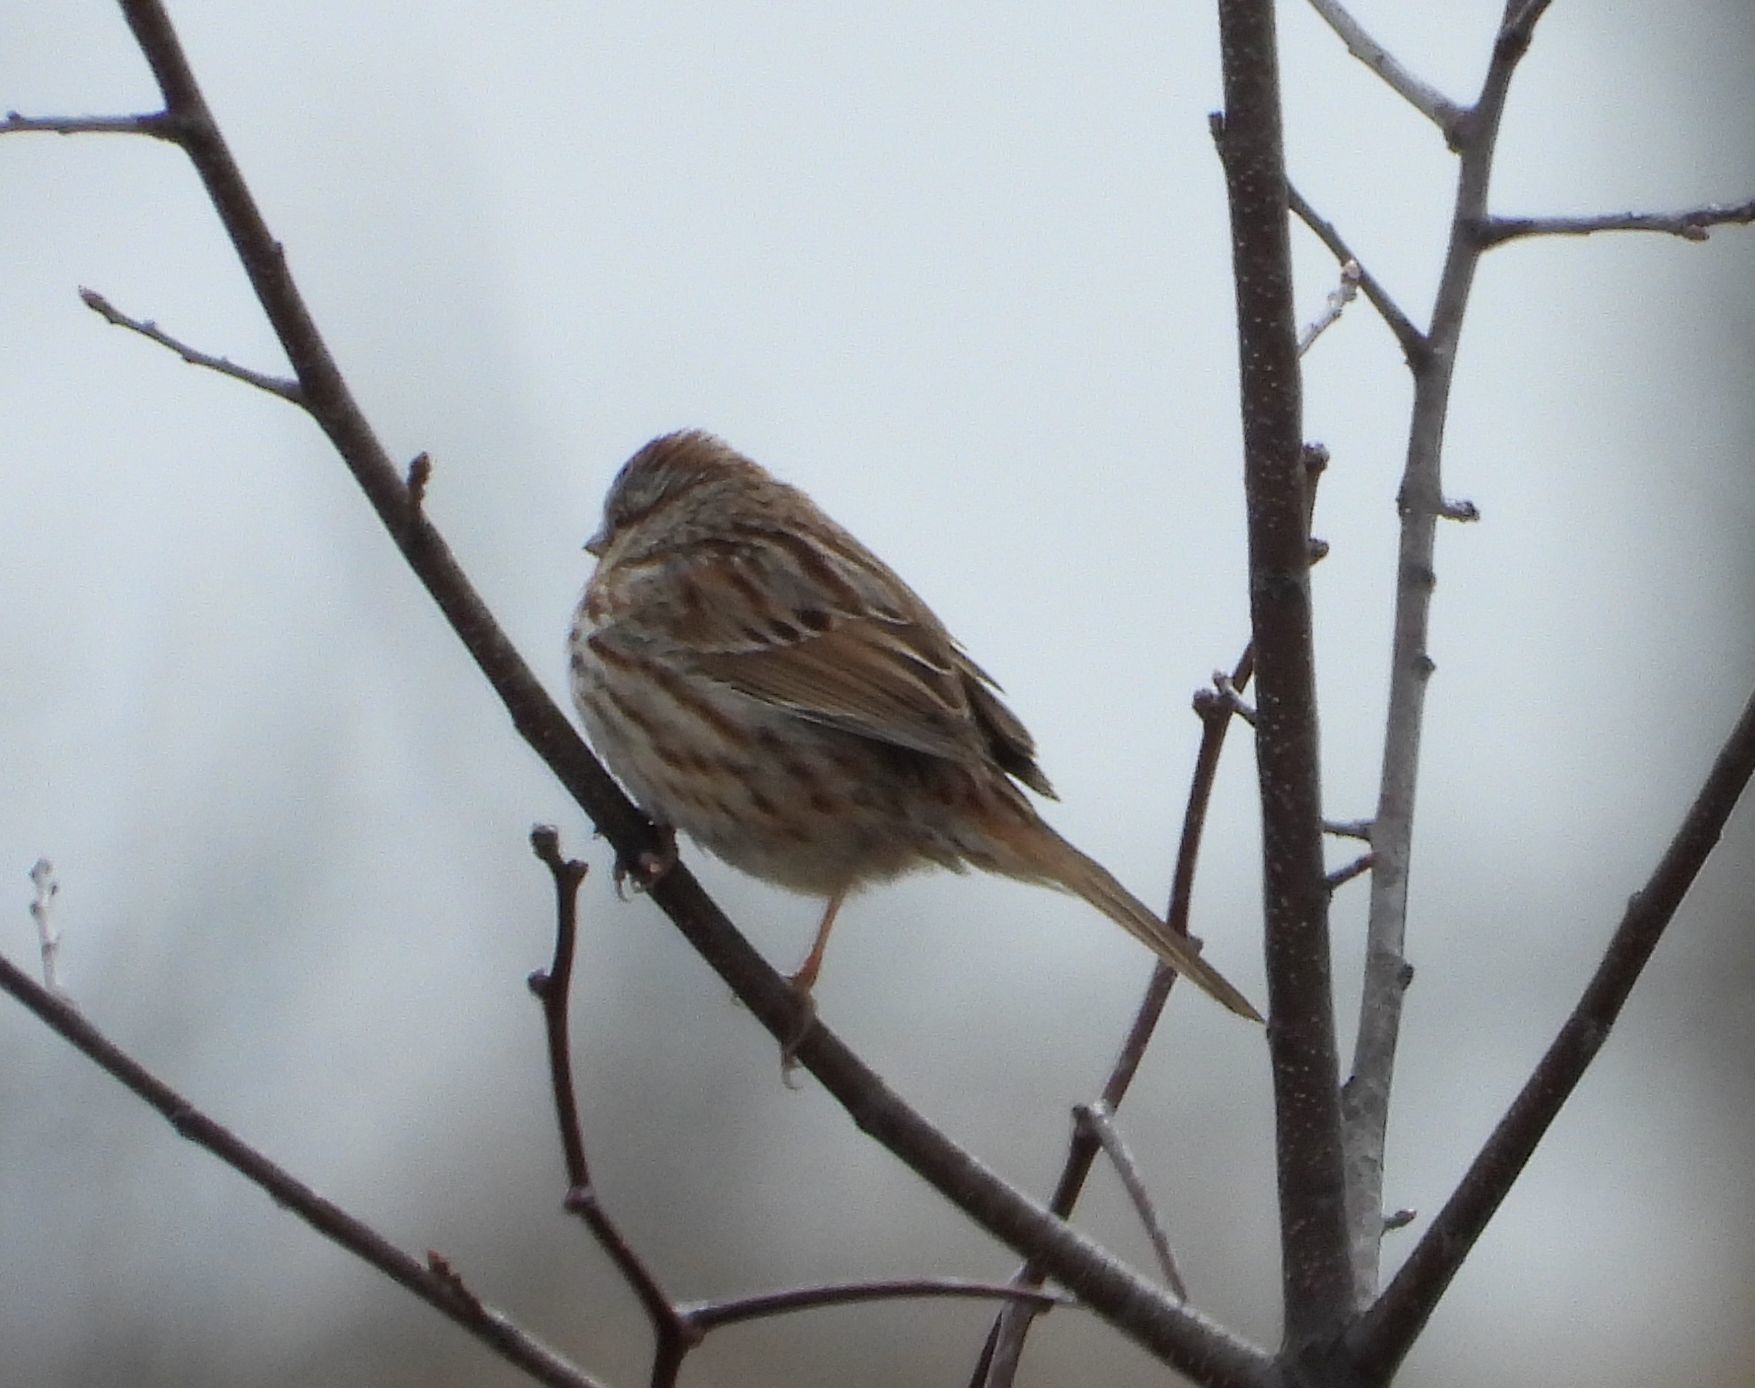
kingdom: Animalia
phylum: Chordata
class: Aves
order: Passeriformes
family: Passerellidae
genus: Melospiza
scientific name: Melospiza melodia
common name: Song sparrow
